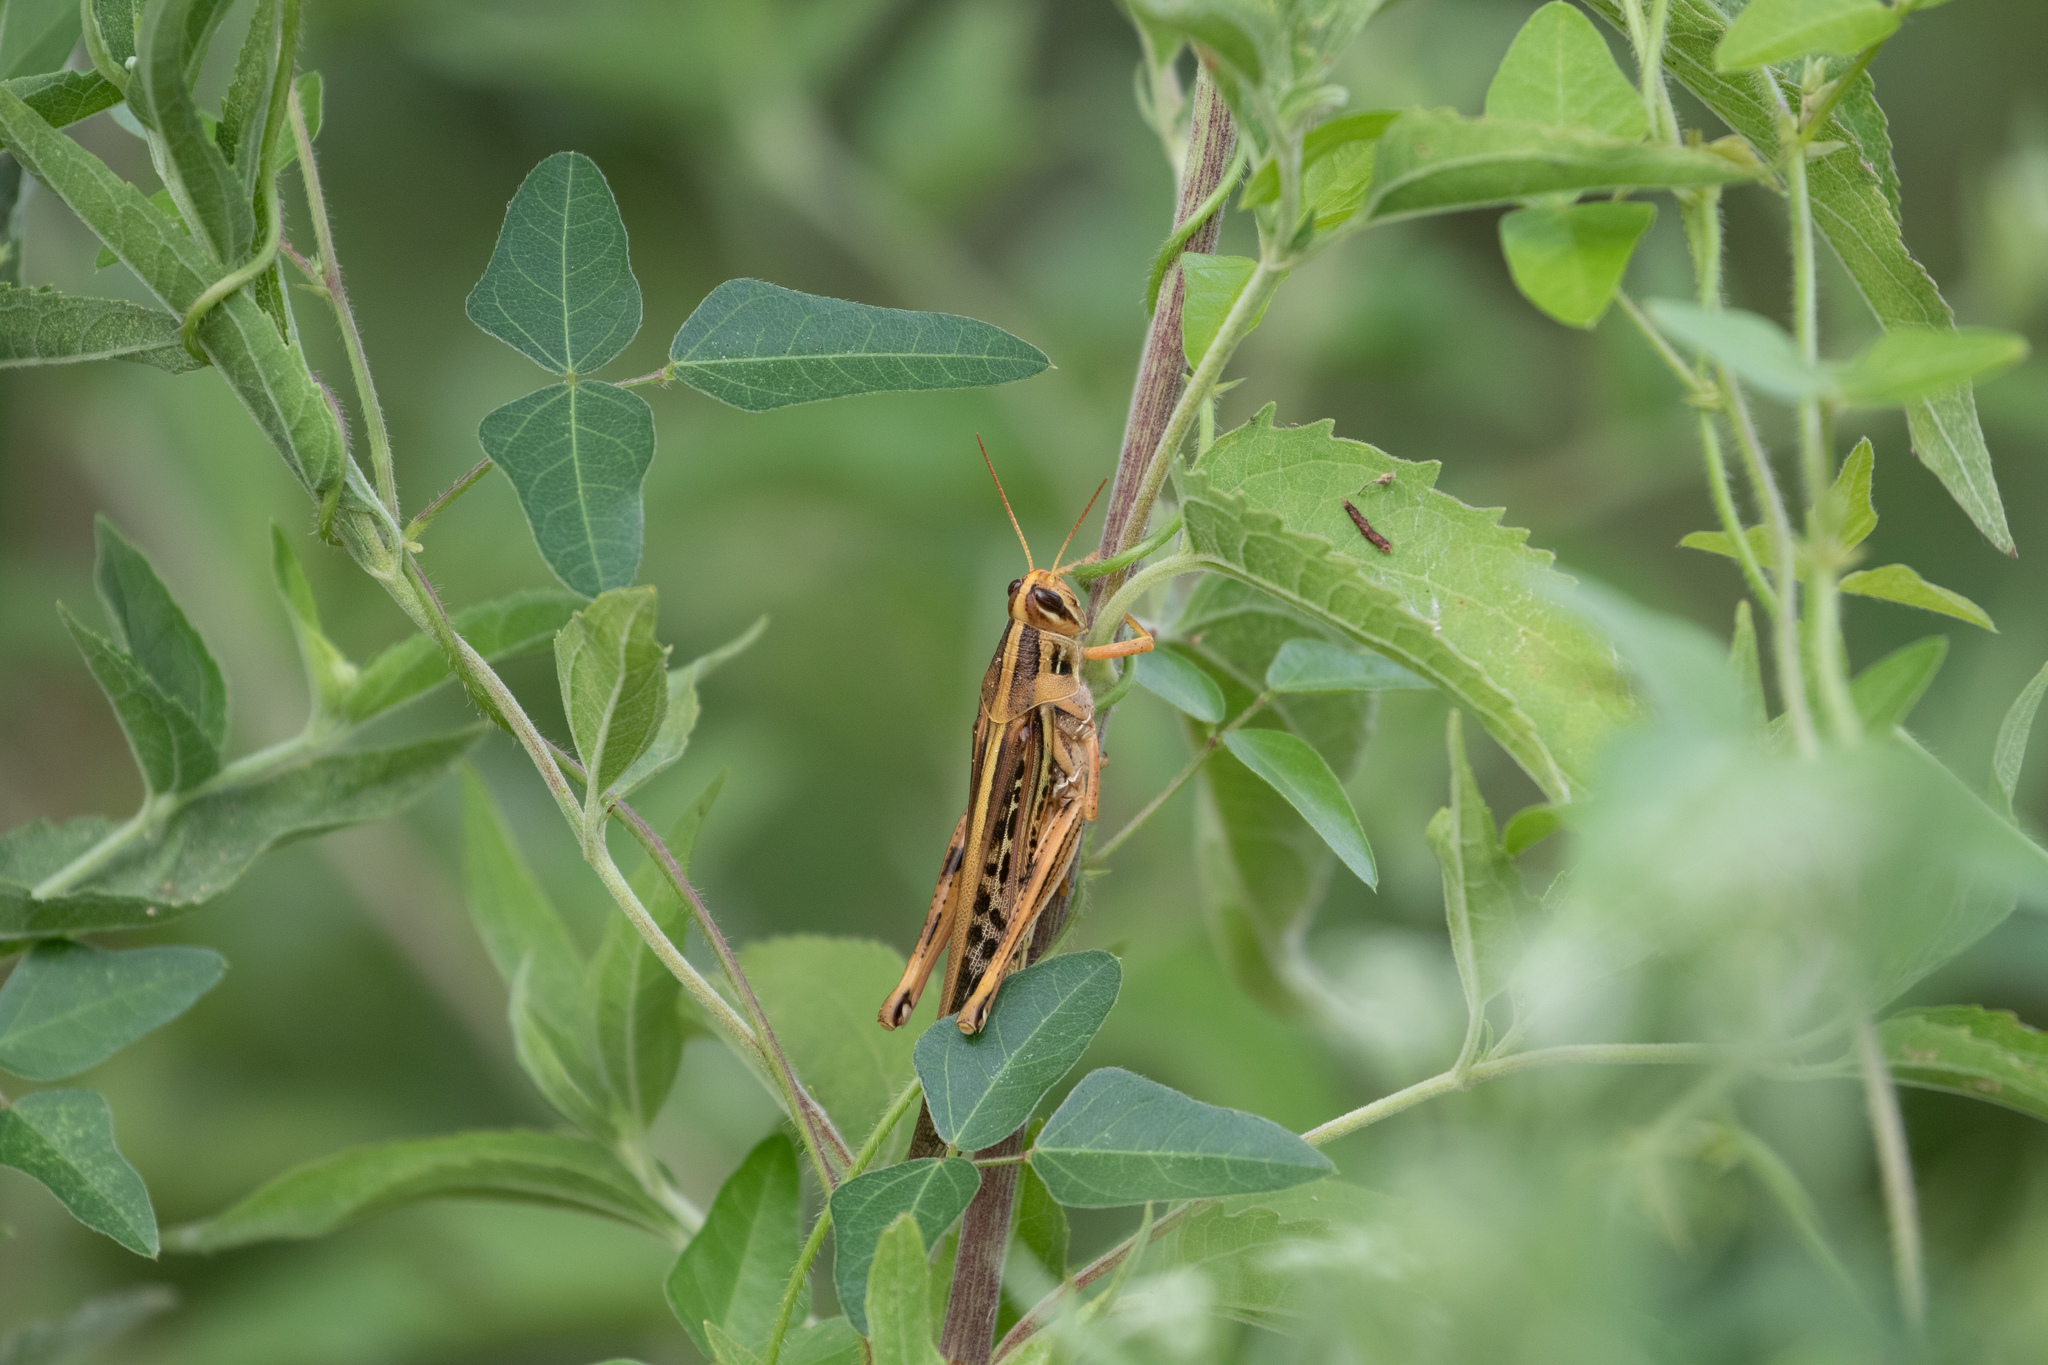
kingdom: Animalia
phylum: Arthropoda
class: Insecta
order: Orthoptera
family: Acrididae
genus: Schistocerca
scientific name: Schistocerca americana
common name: American bird locust
